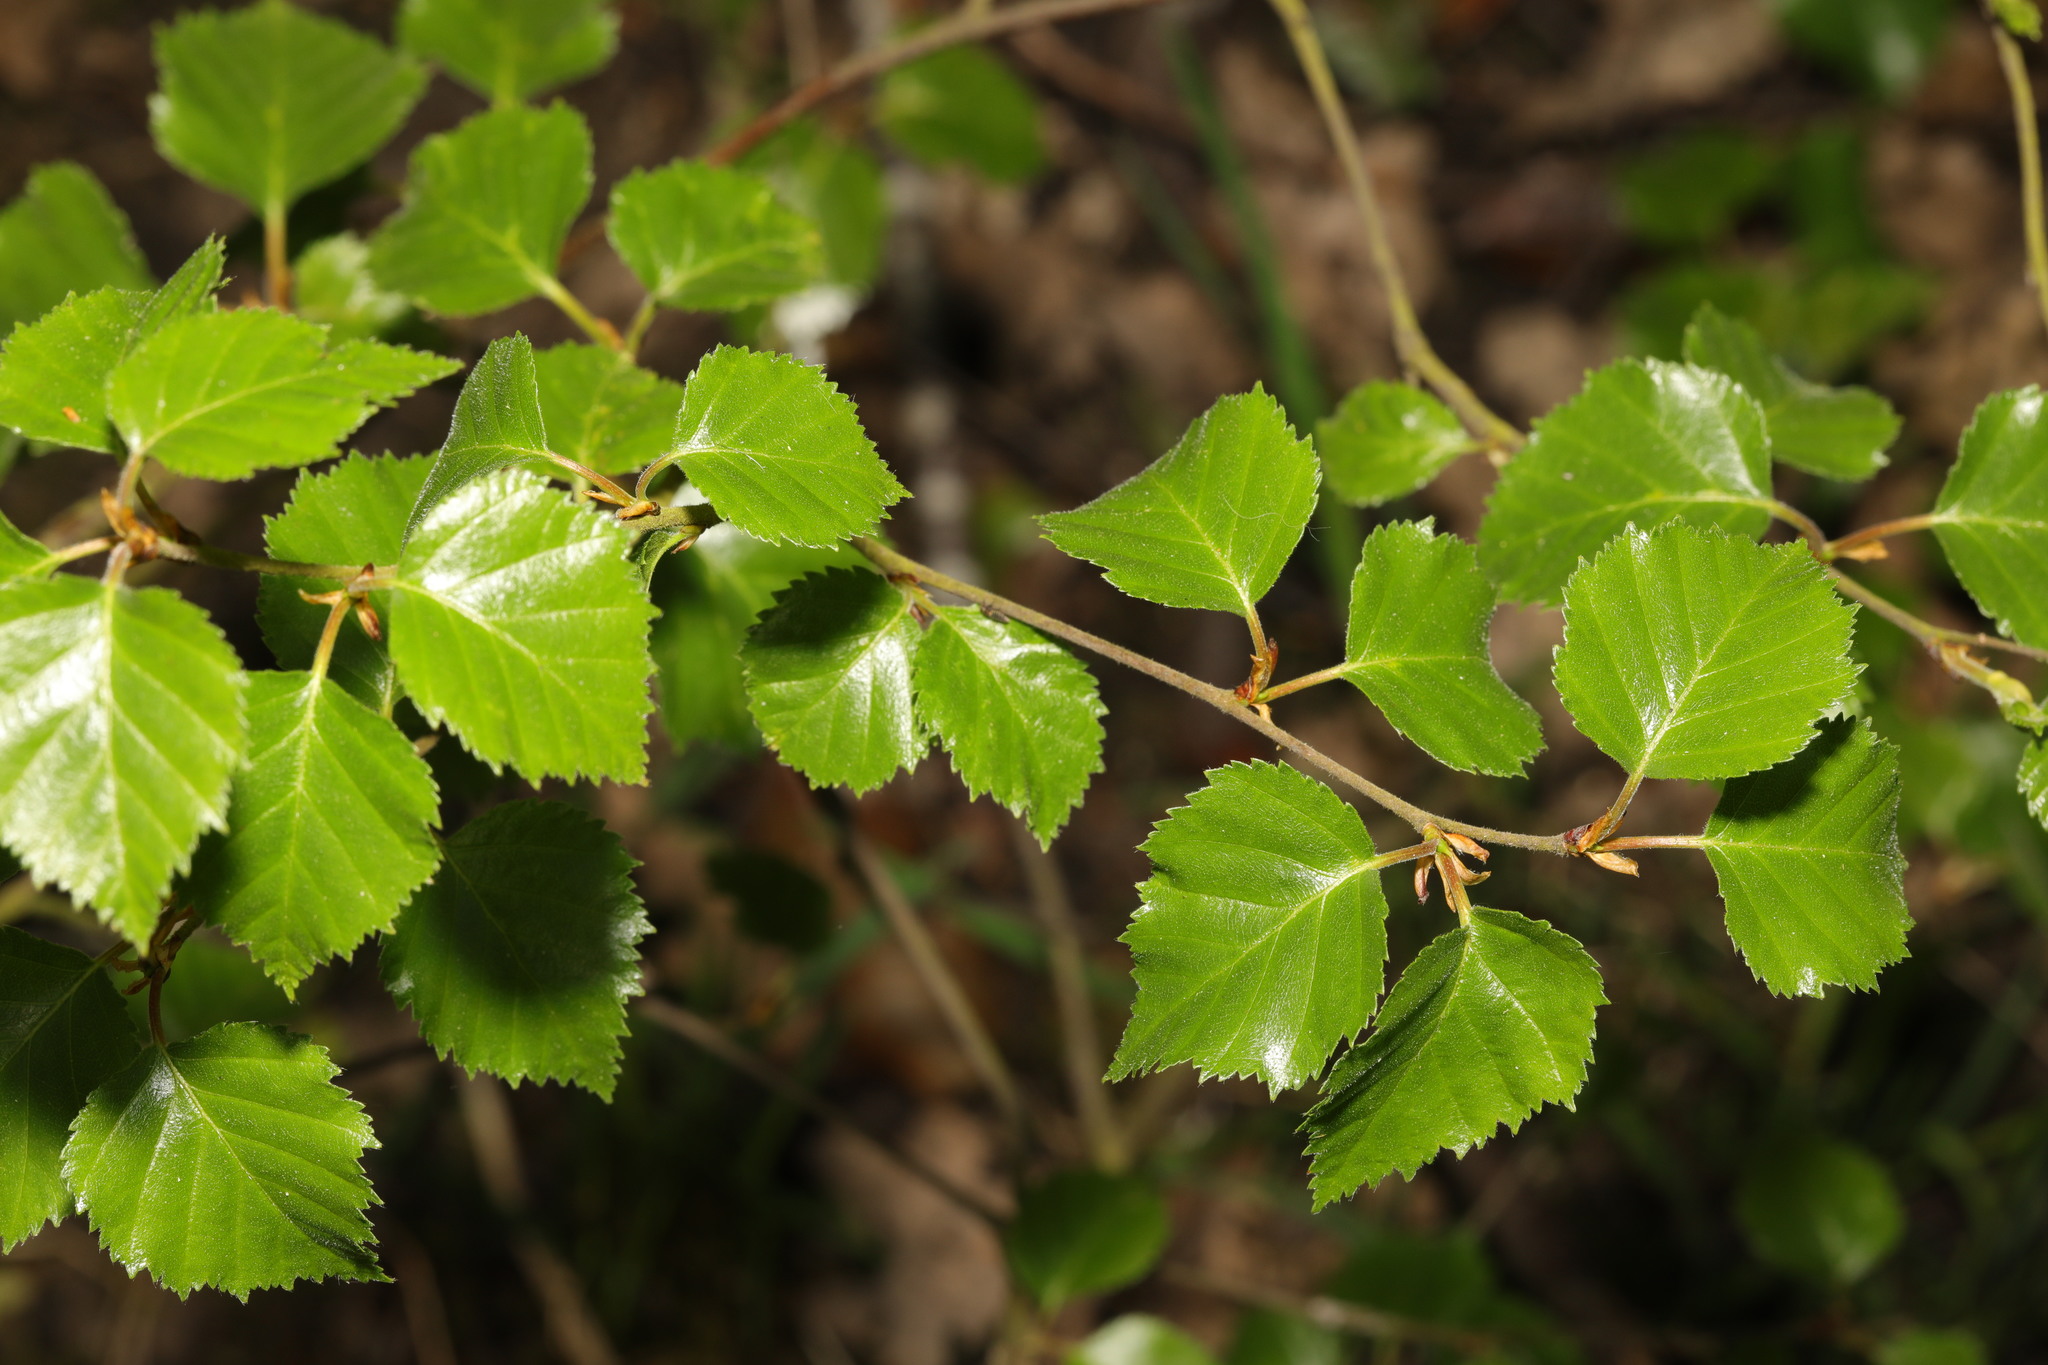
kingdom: Plantae
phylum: Tracheophyta
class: Magnoliopsida
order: Fagales
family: Betulaceae
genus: Betula
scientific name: Betula pubescens
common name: Downy birch
